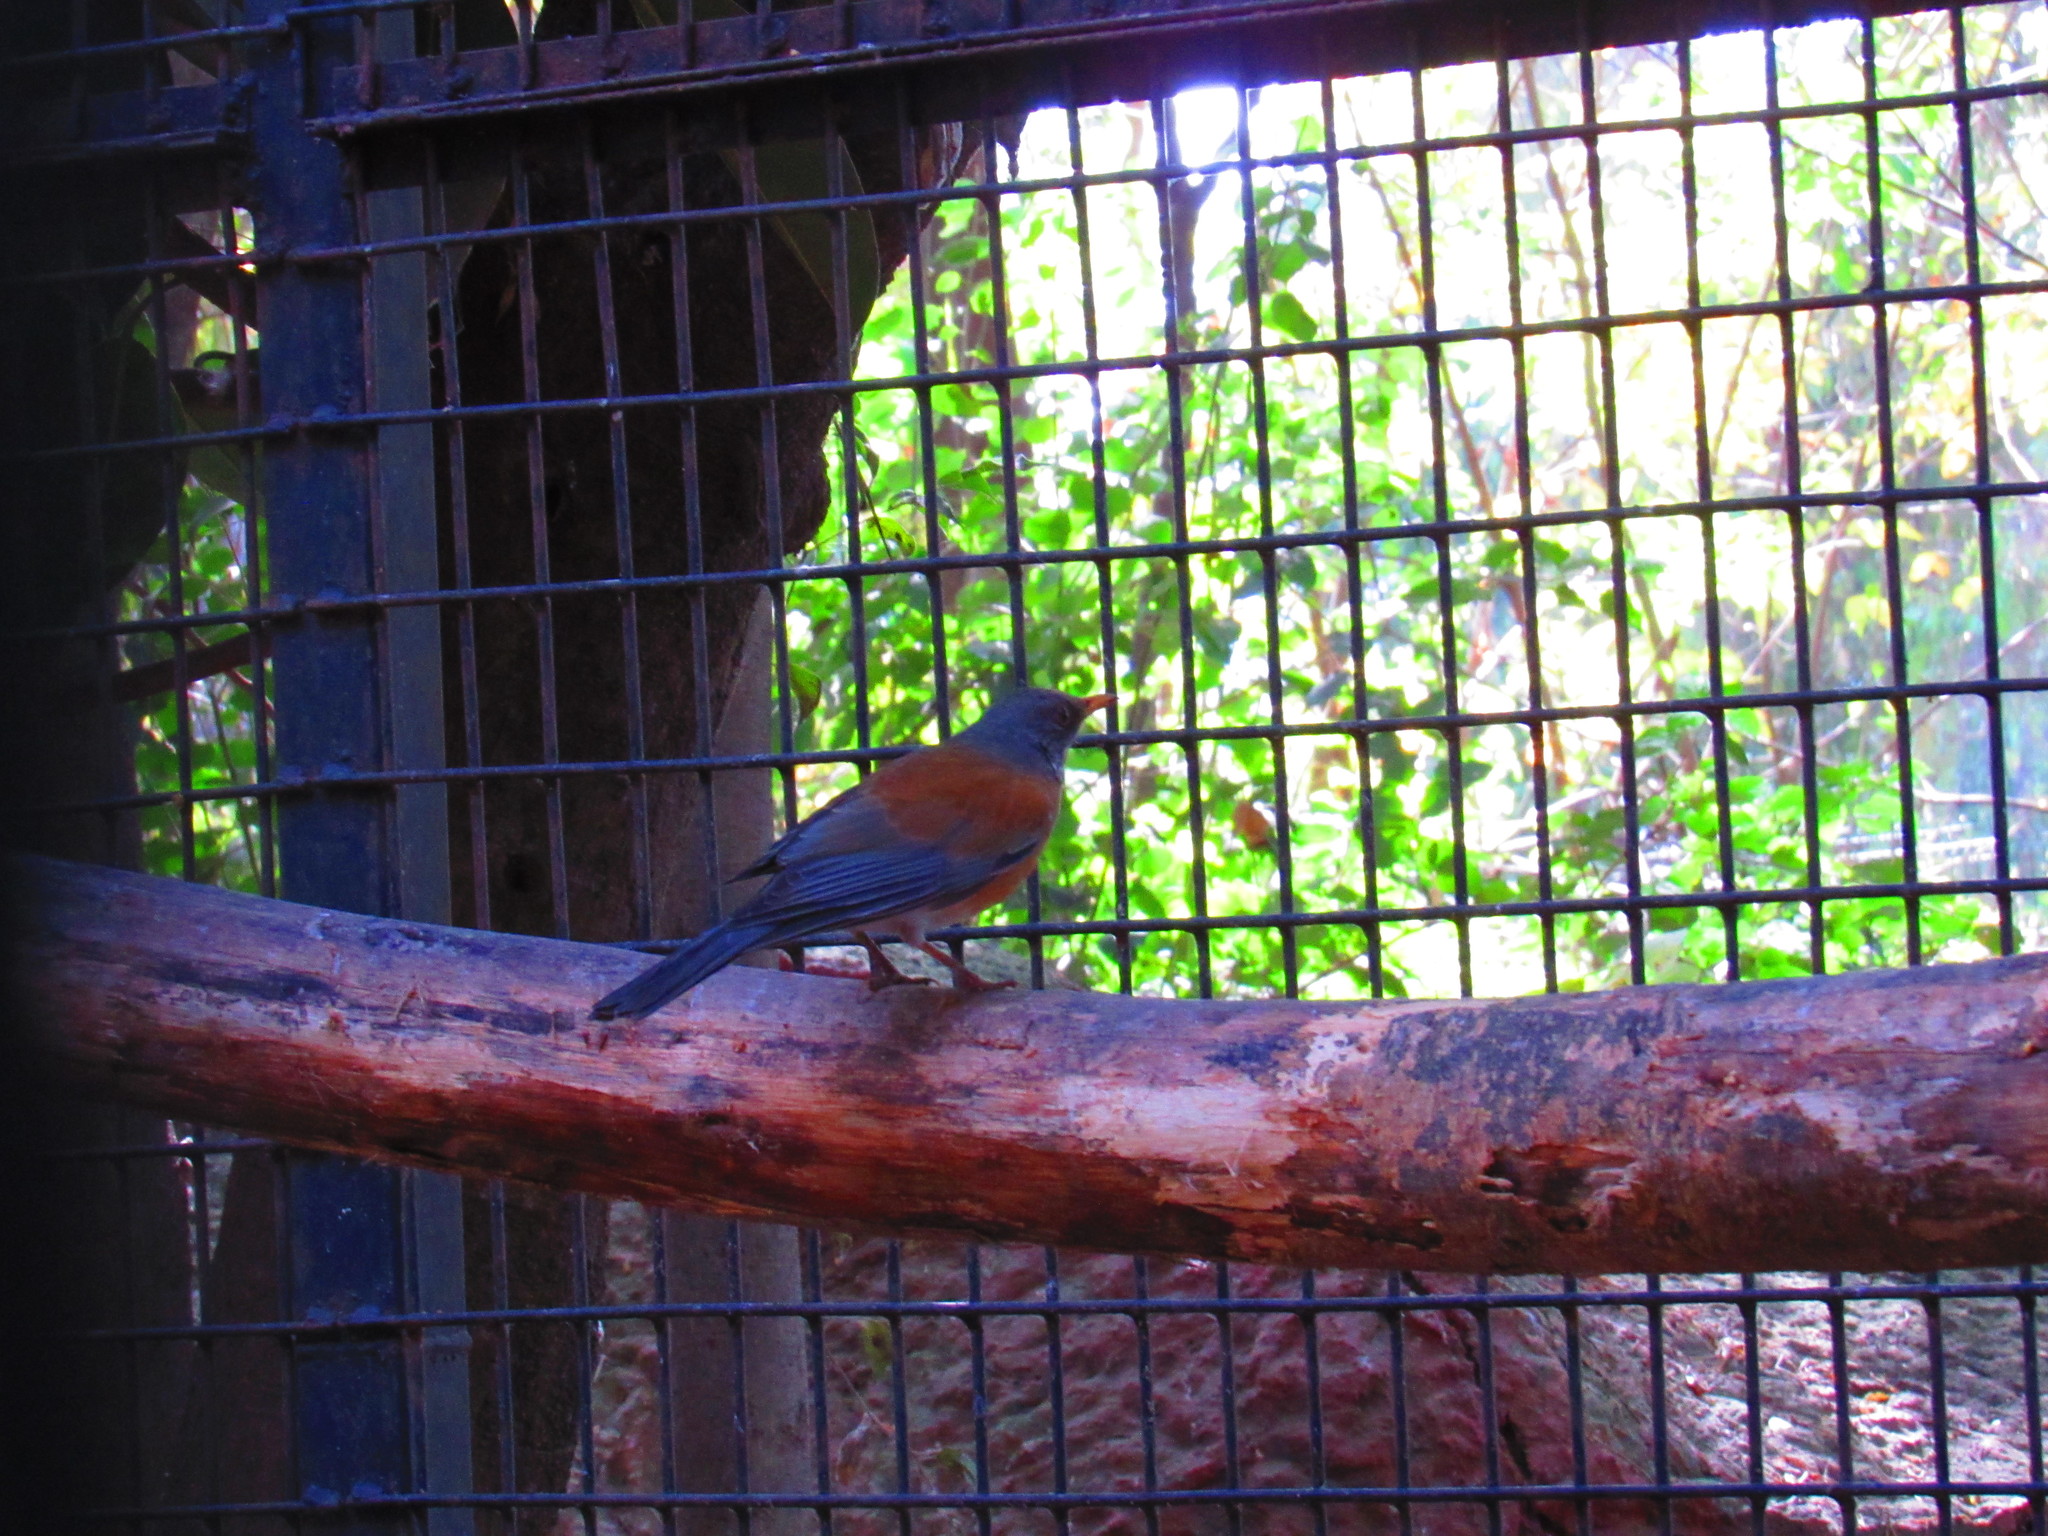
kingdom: Animalia
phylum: Chordata
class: Aves
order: Passeriformes
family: Turdidae
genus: Turdus
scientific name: Turdus rufopalliatus
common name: Rufous-backed robin
